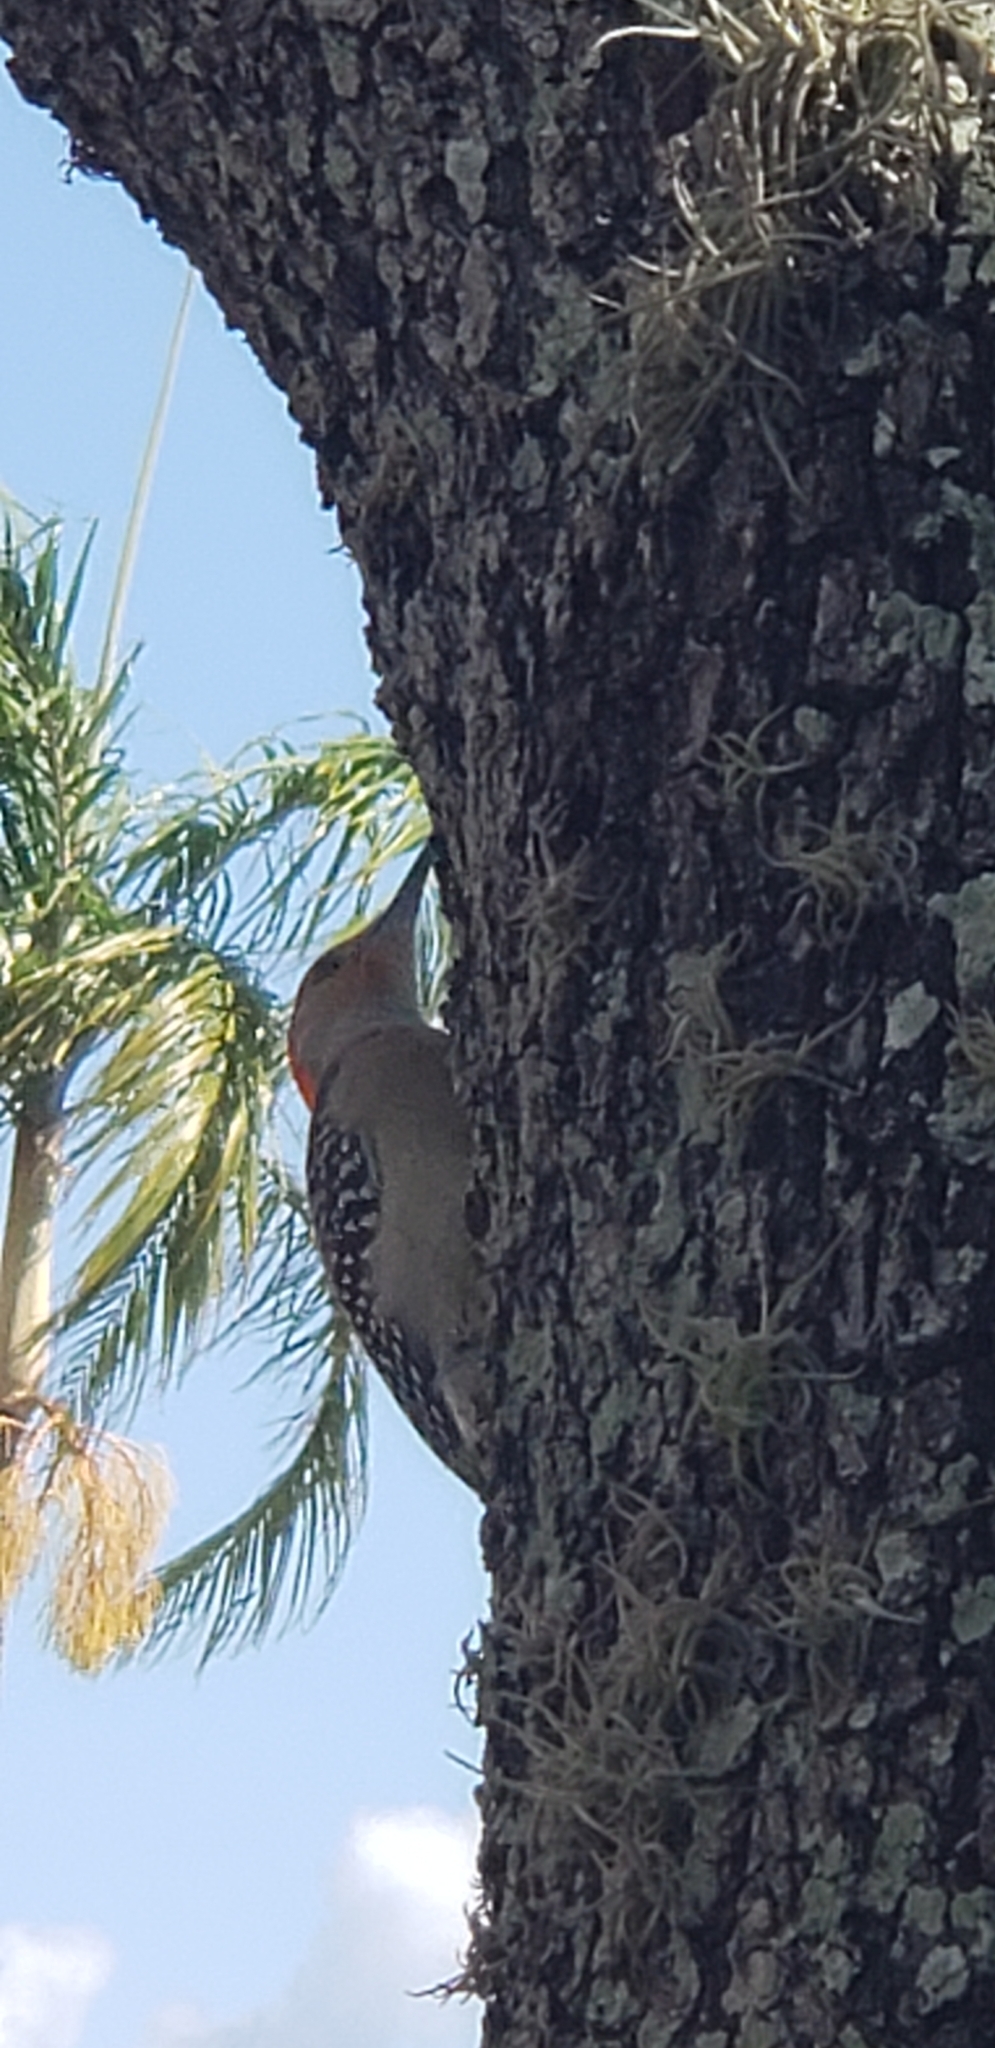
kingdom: Animalia
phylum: Chordata
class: Aves
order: Piciformes
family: Picidae
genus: Melanerpes
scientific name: Melanerpes carolinus
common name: Red-bellied woodpecker
